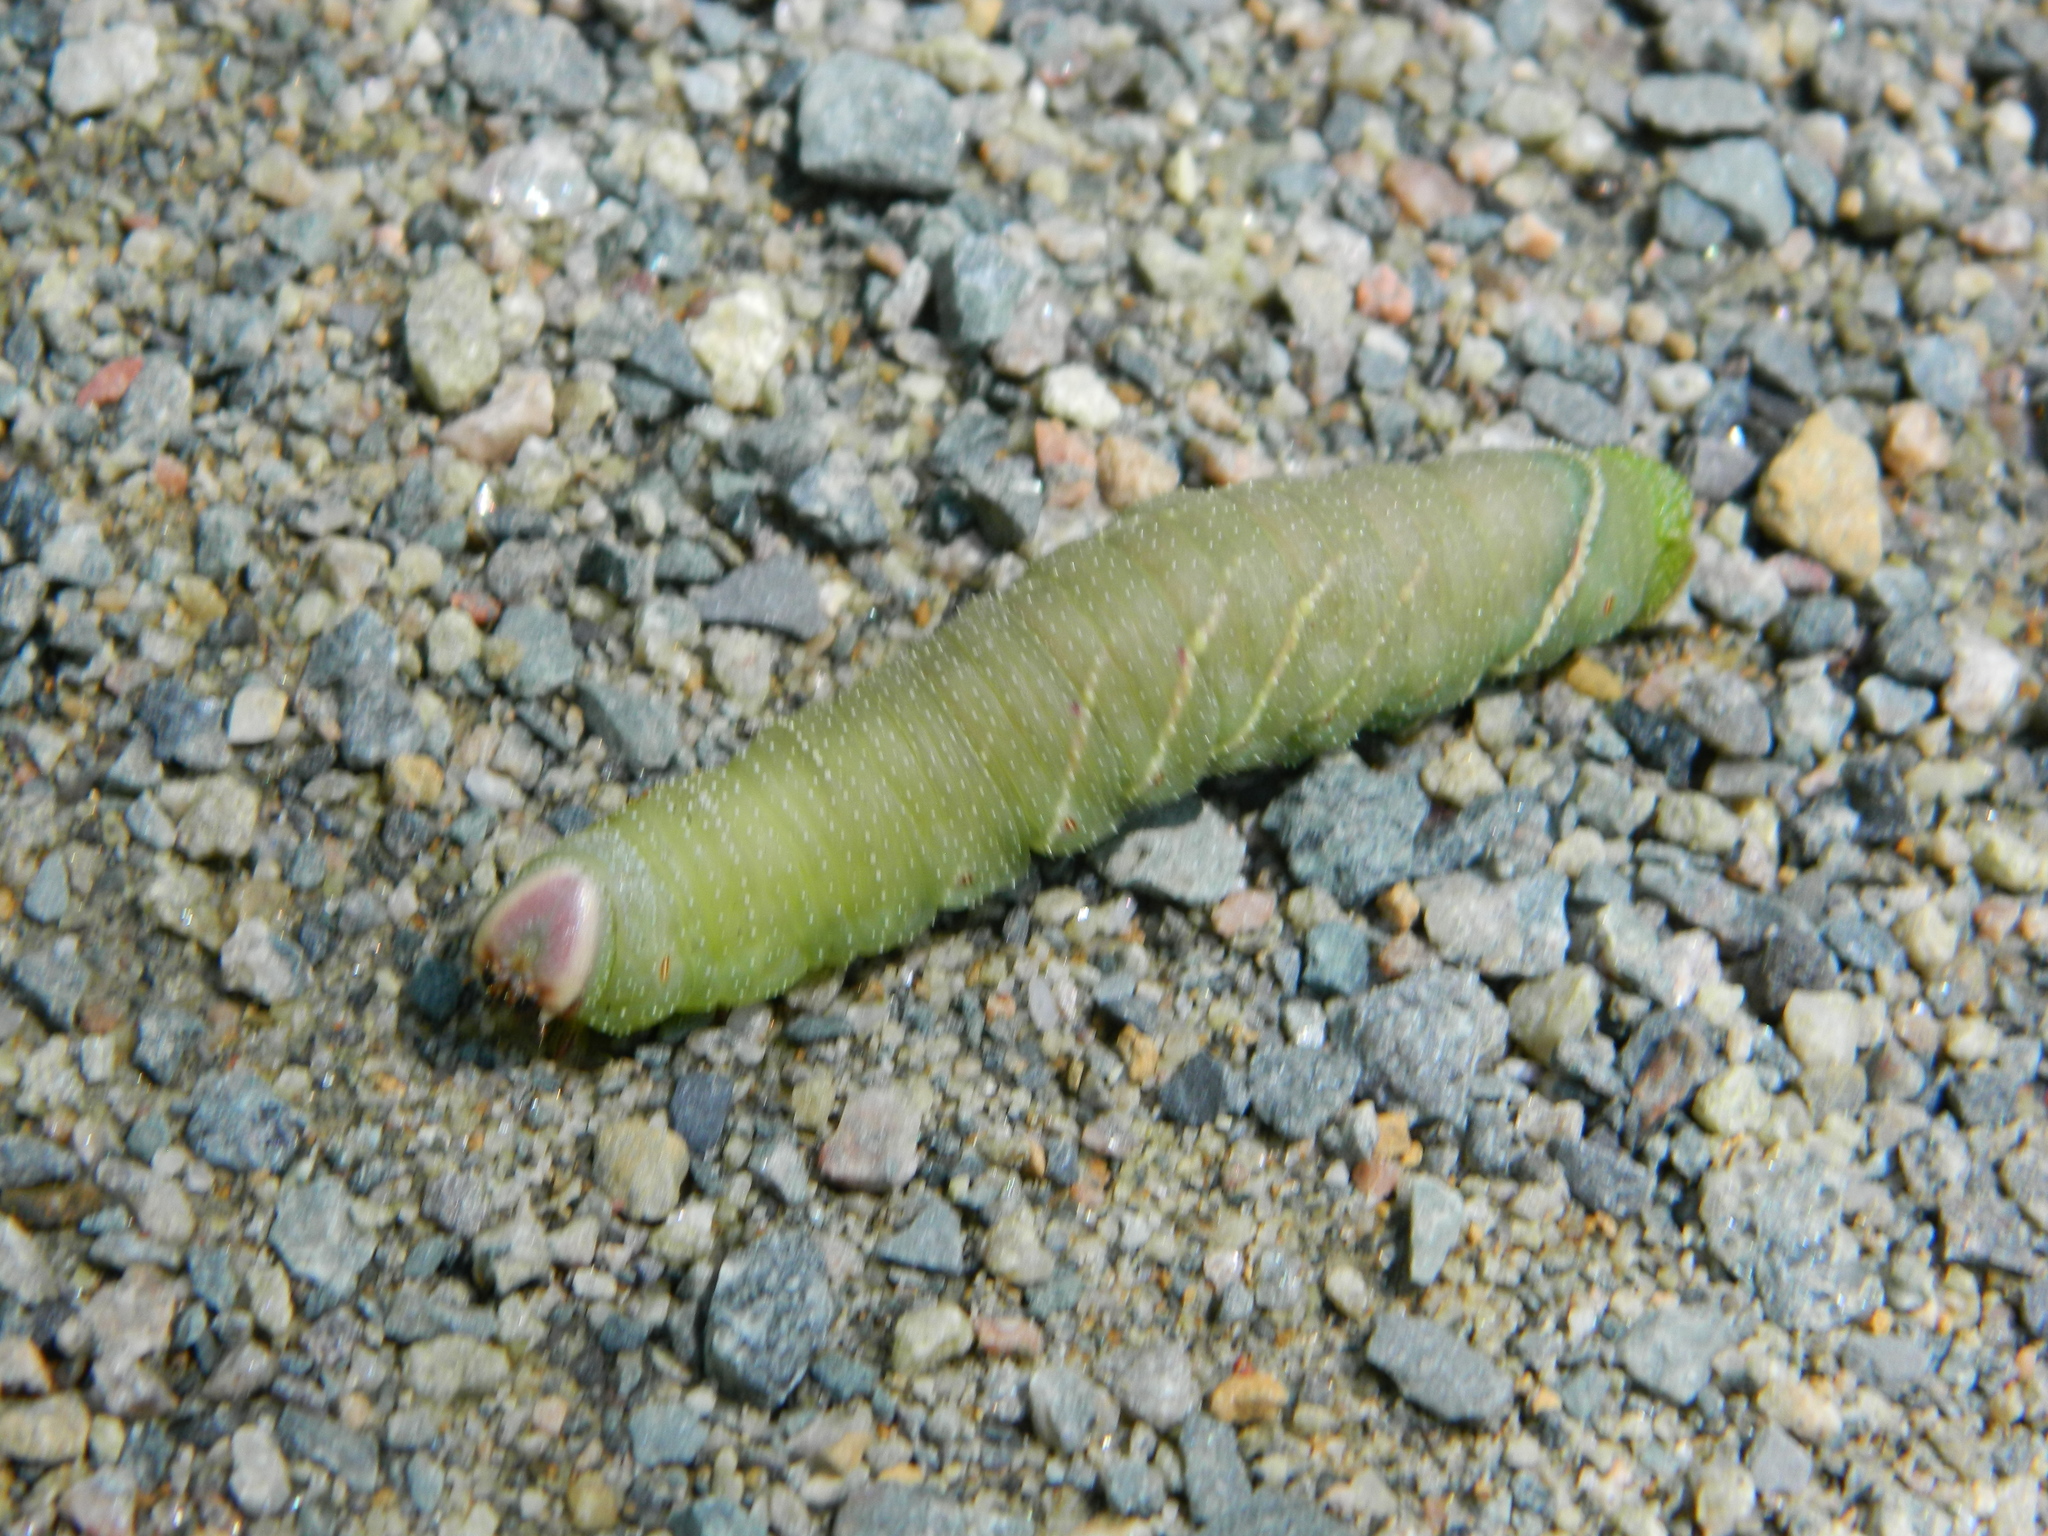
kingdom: Animalia
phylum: Arthropoda
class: Insecta
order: Lepidoptera
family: Sphingidae
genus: Pachysphinx
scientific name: Pachysphinx modesta
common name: Big poplar sphinx
